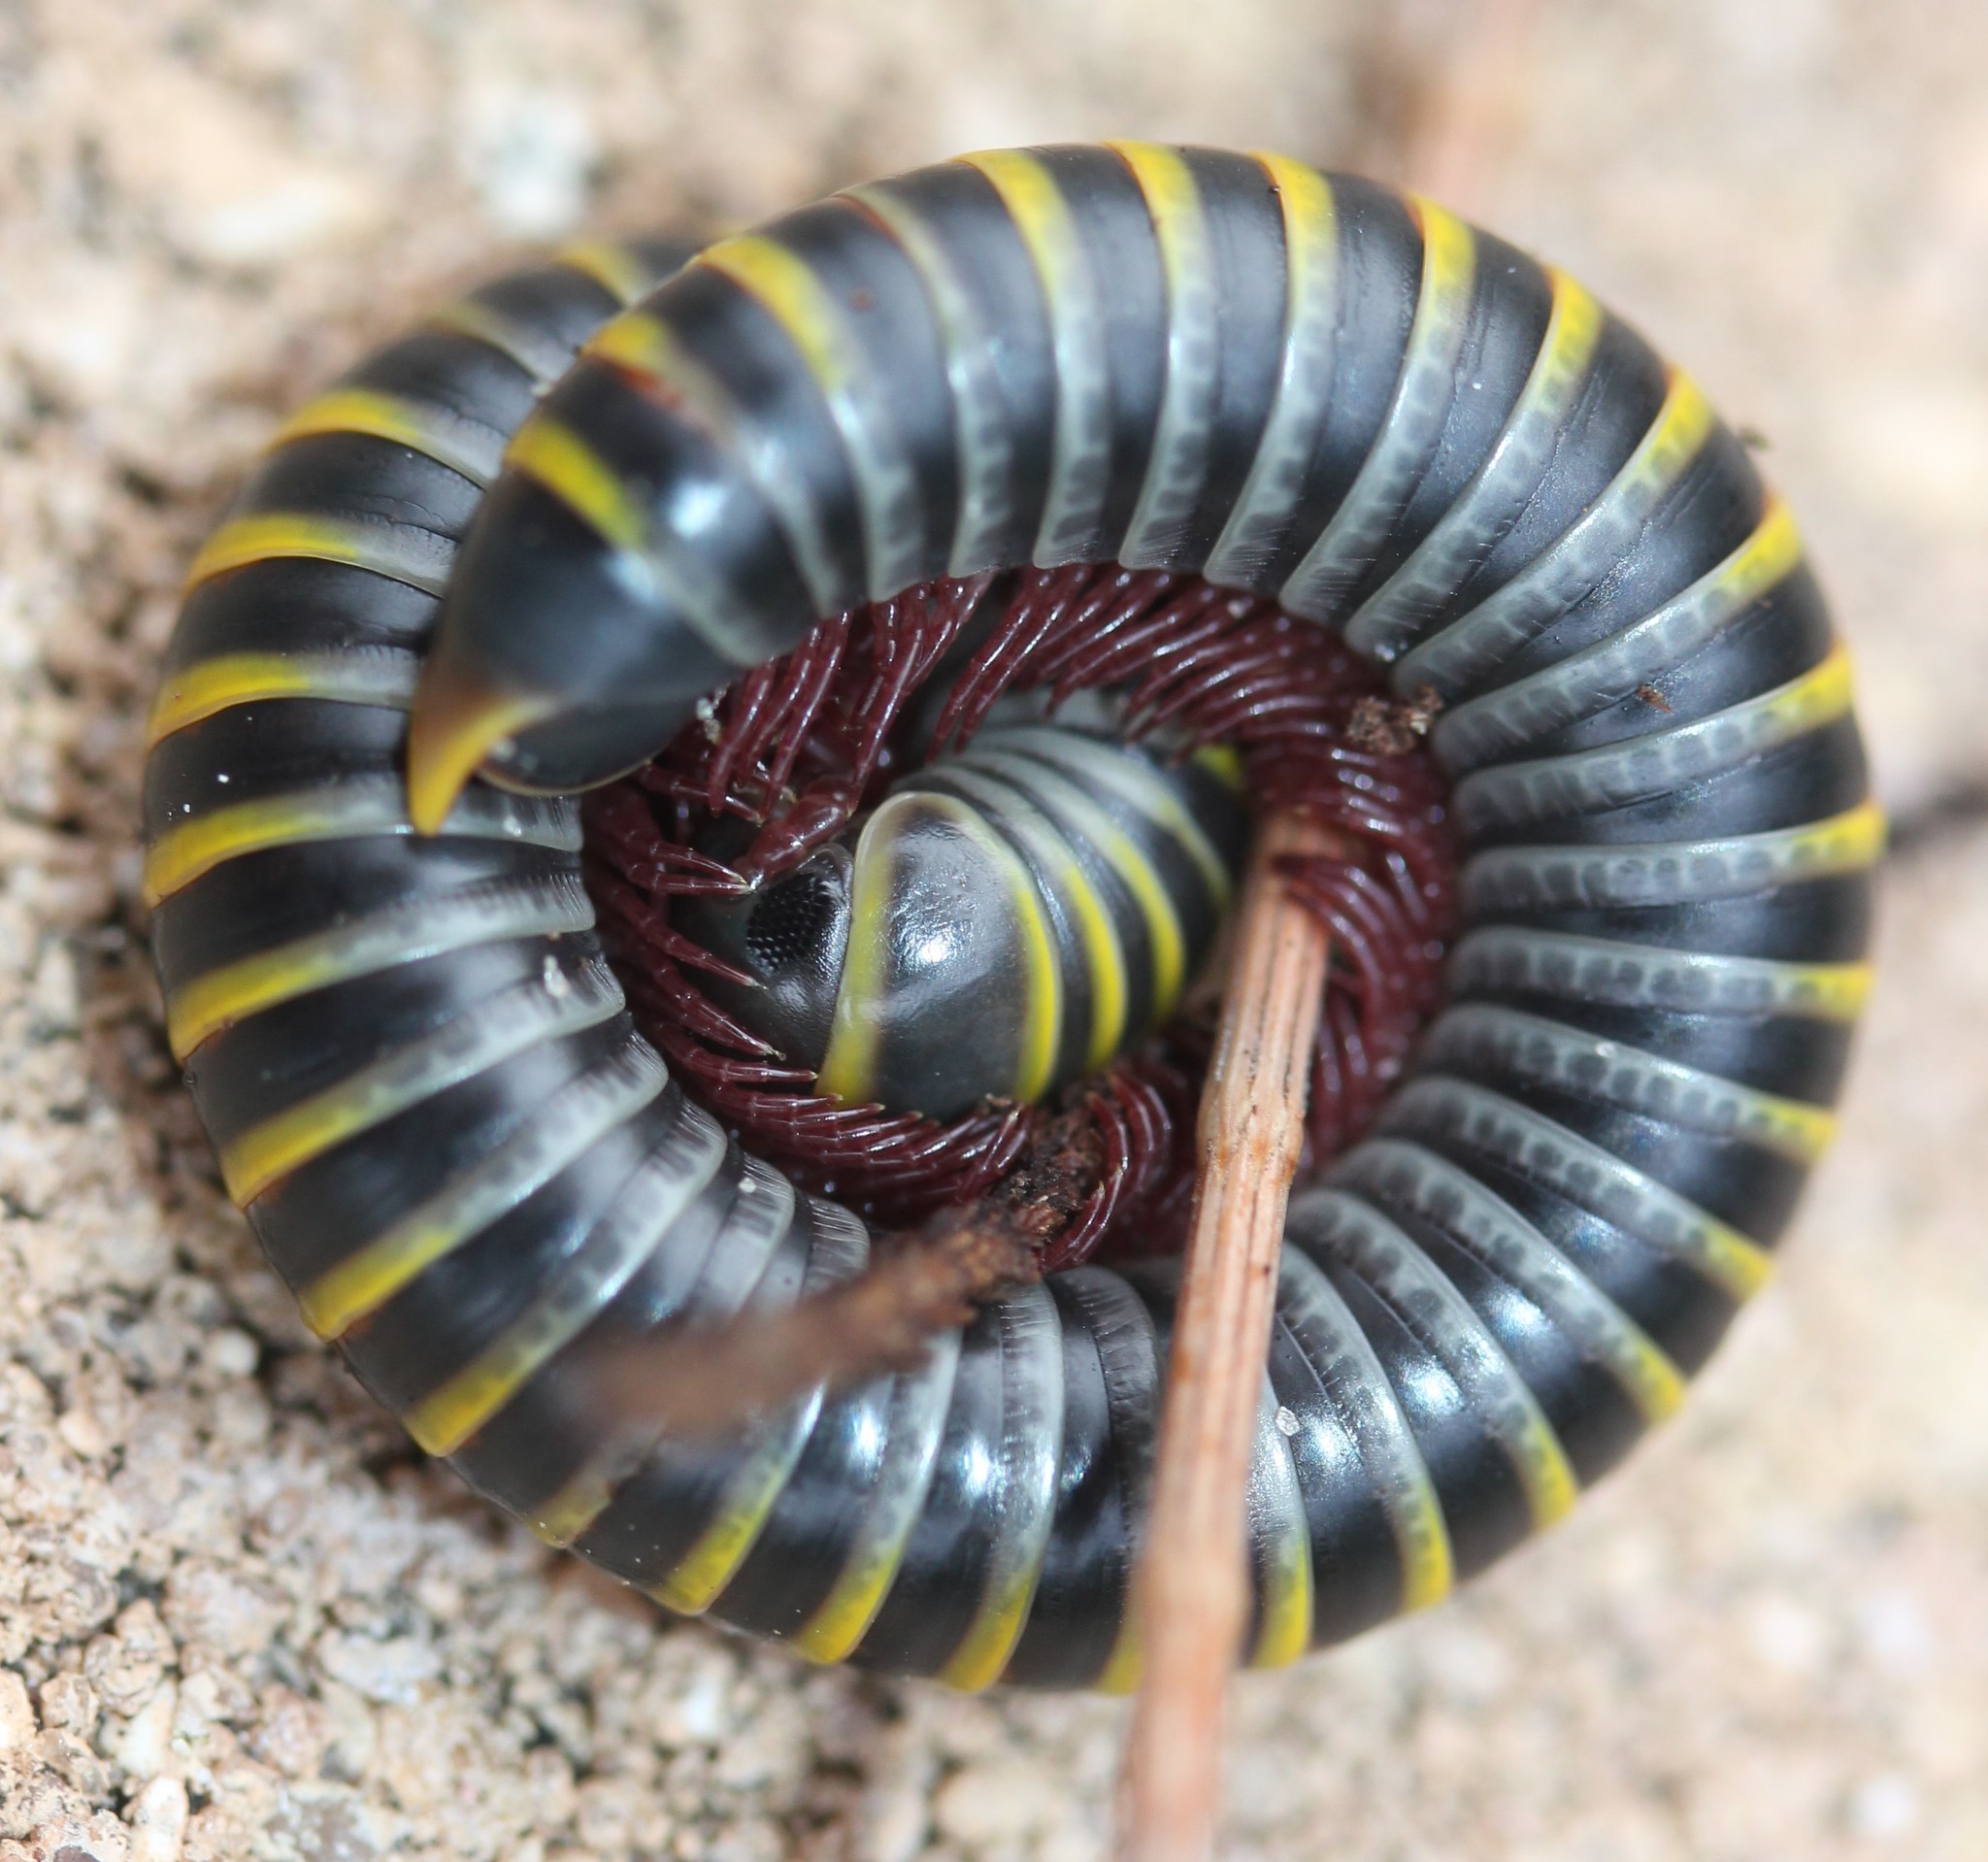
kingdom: Animalia
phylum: Arthropoda
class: Diplopoda
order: Spirobolida
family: Rhinocricidae
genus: Anadenobolus
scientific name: Anadenobolus monilicornis
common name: Caribbean millipede
